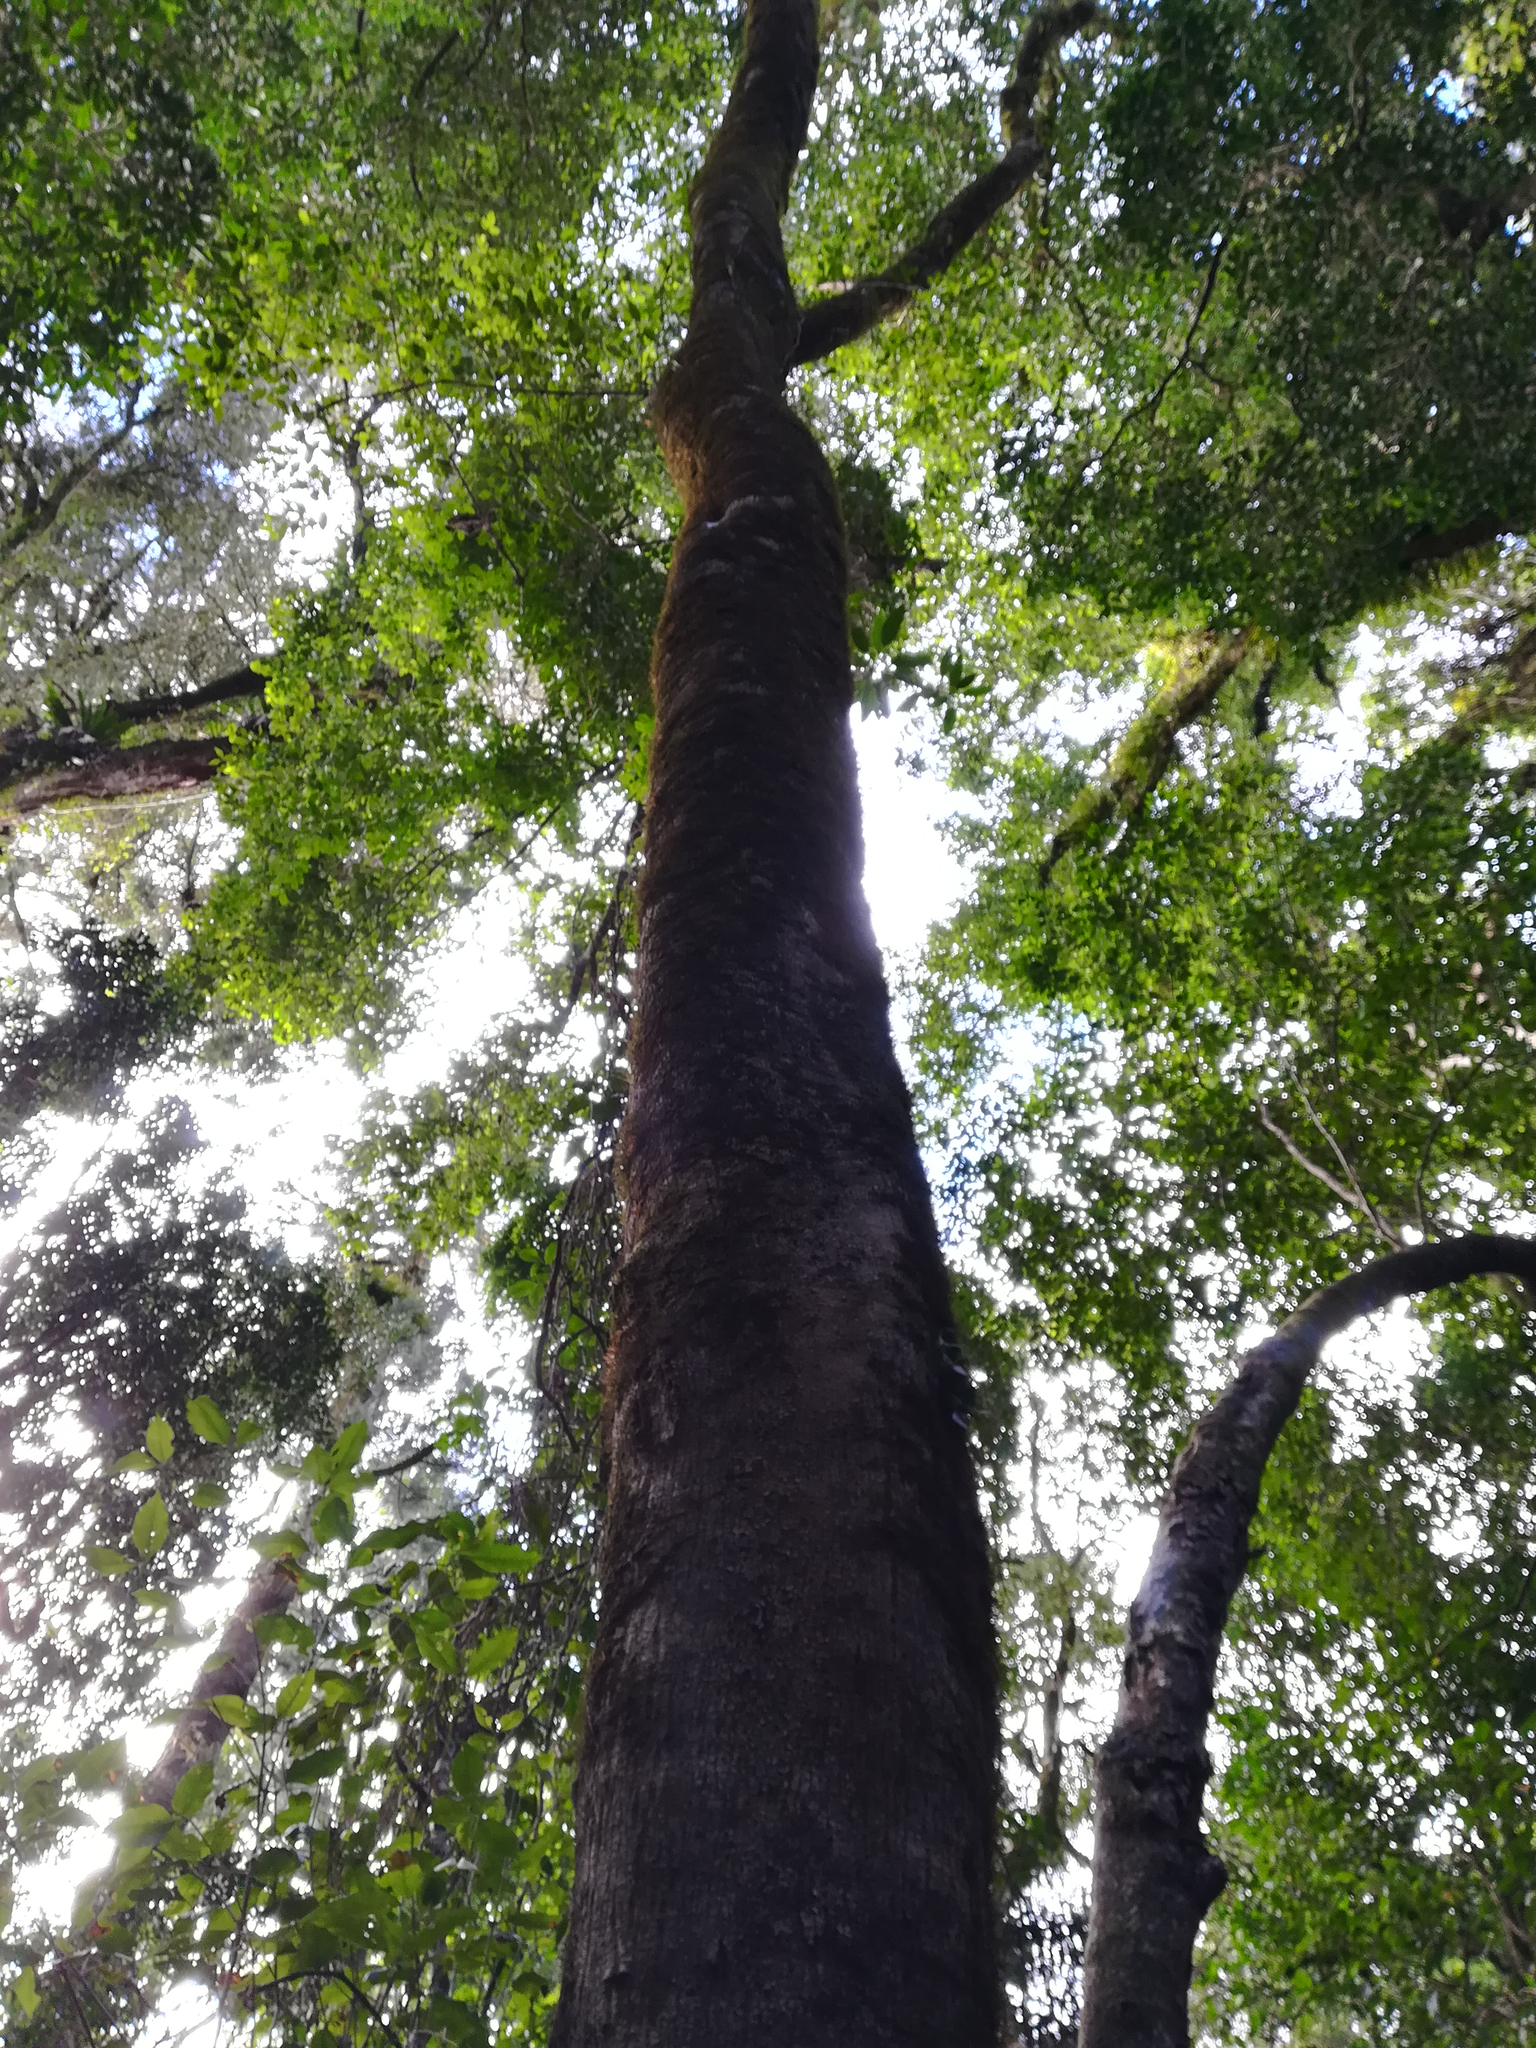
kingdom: Plantae
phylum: Tracheophyta
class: Magnoliopsida
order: Lamiales
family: Oleaceae
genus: Olea
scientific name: Olea paniculata
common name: Australian olive
